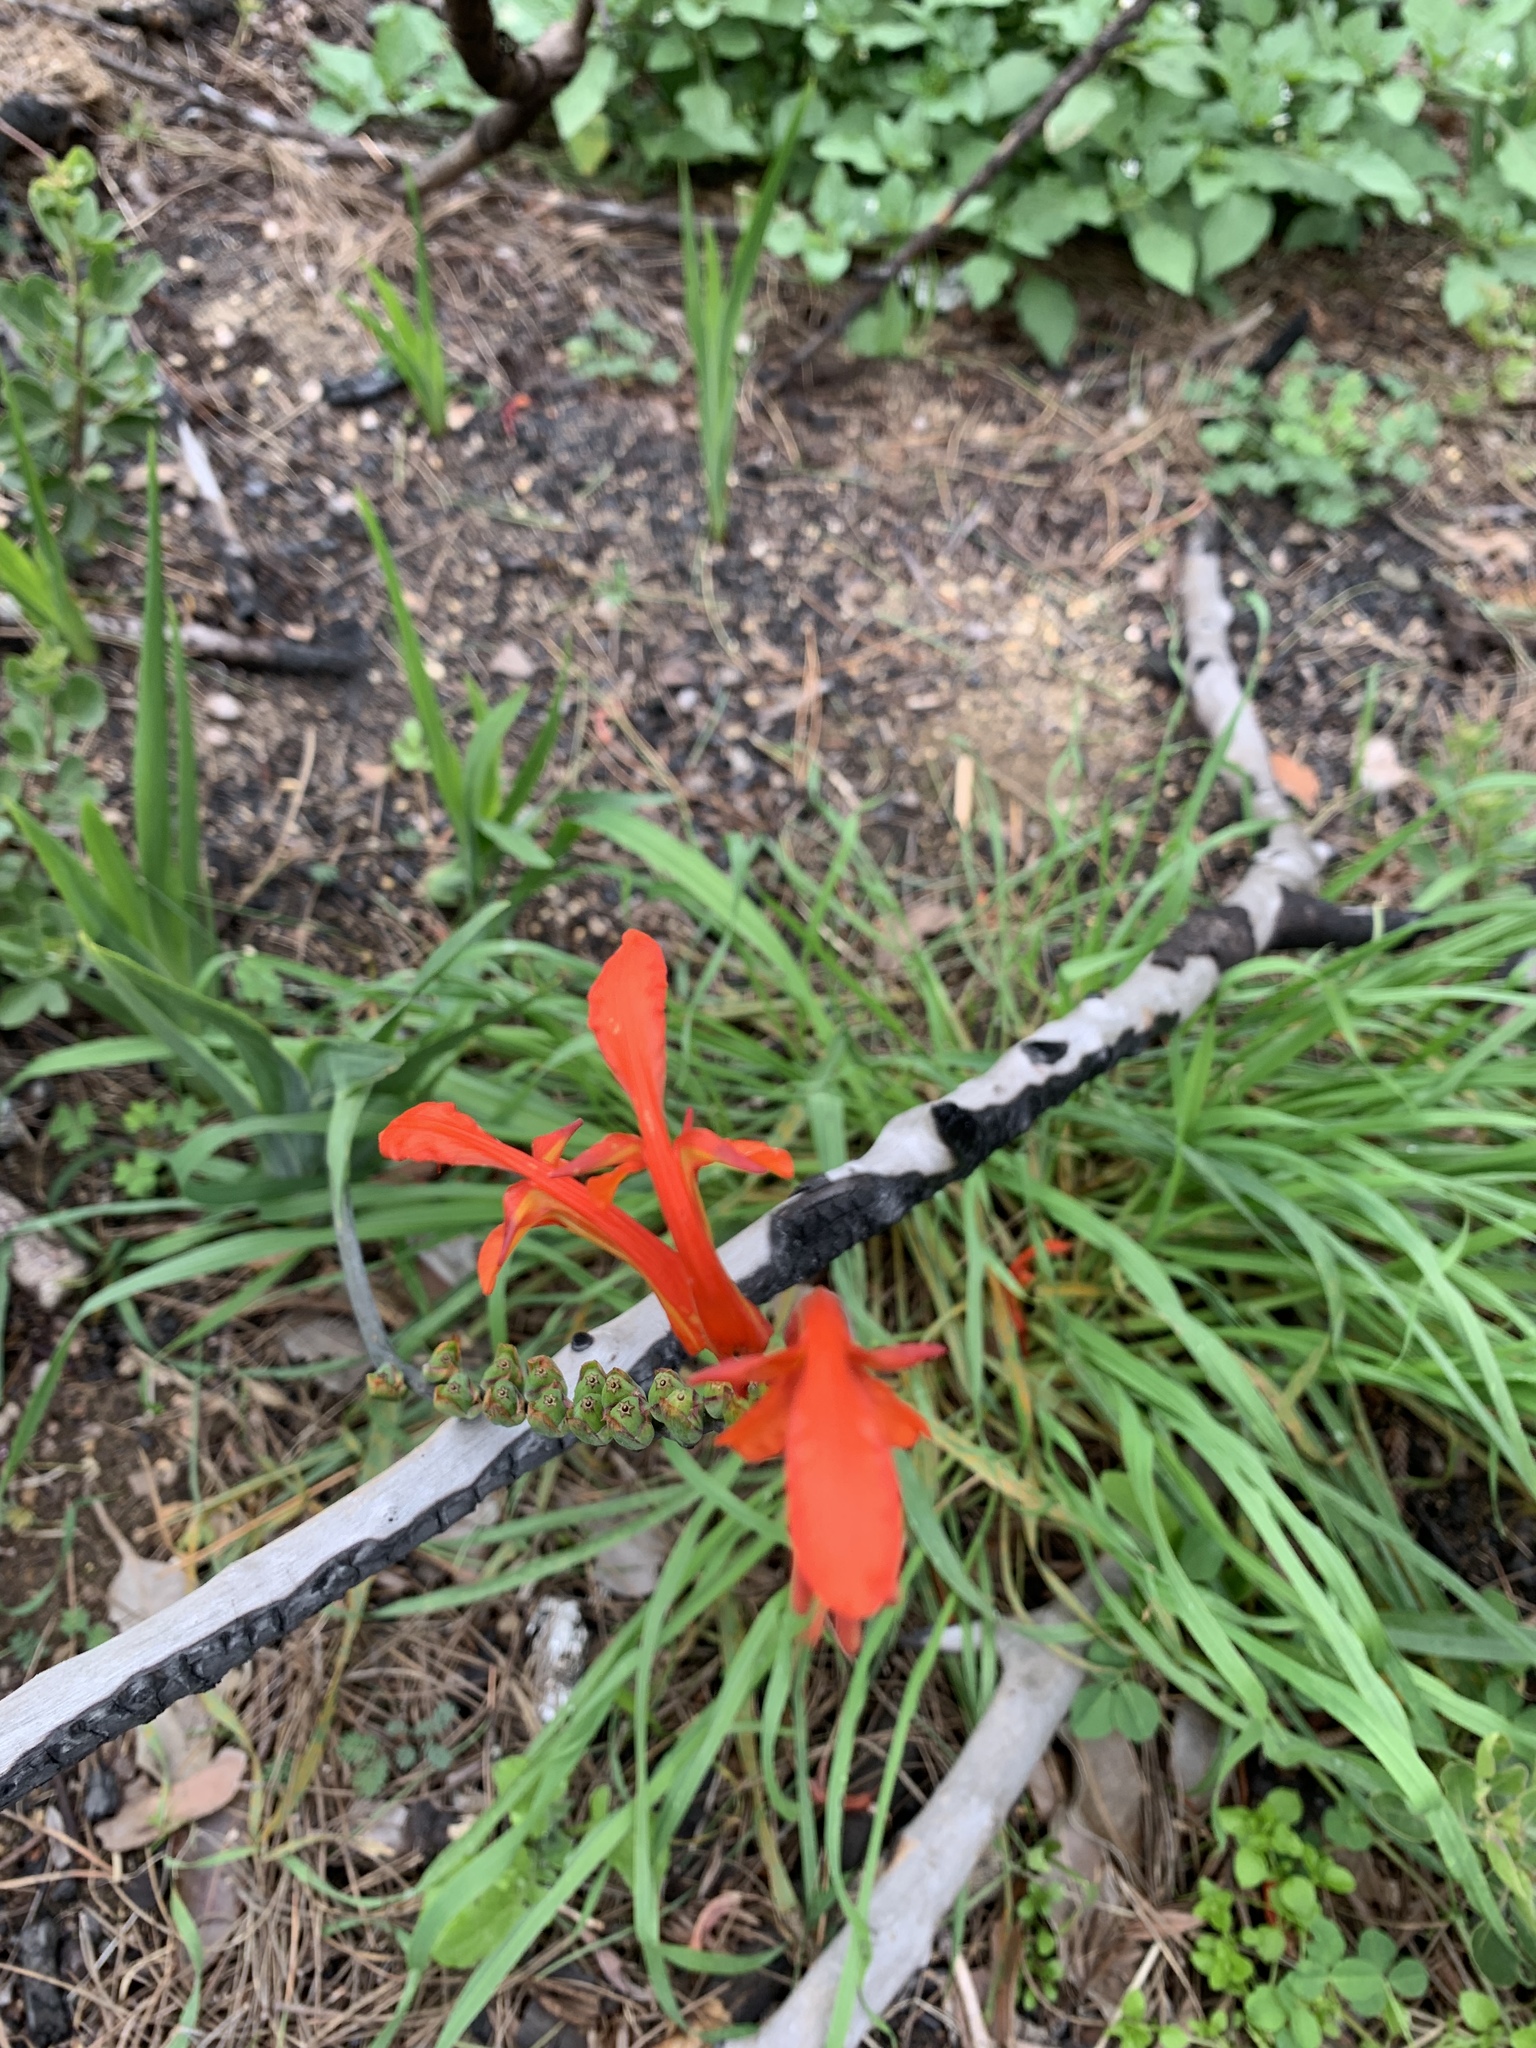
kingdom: Plantae
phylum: Tracheophyta
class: Liliopsida
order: Asparagales
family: Iridaceae
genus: Chasmanthe
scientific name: Chasmanthe aethiopica
